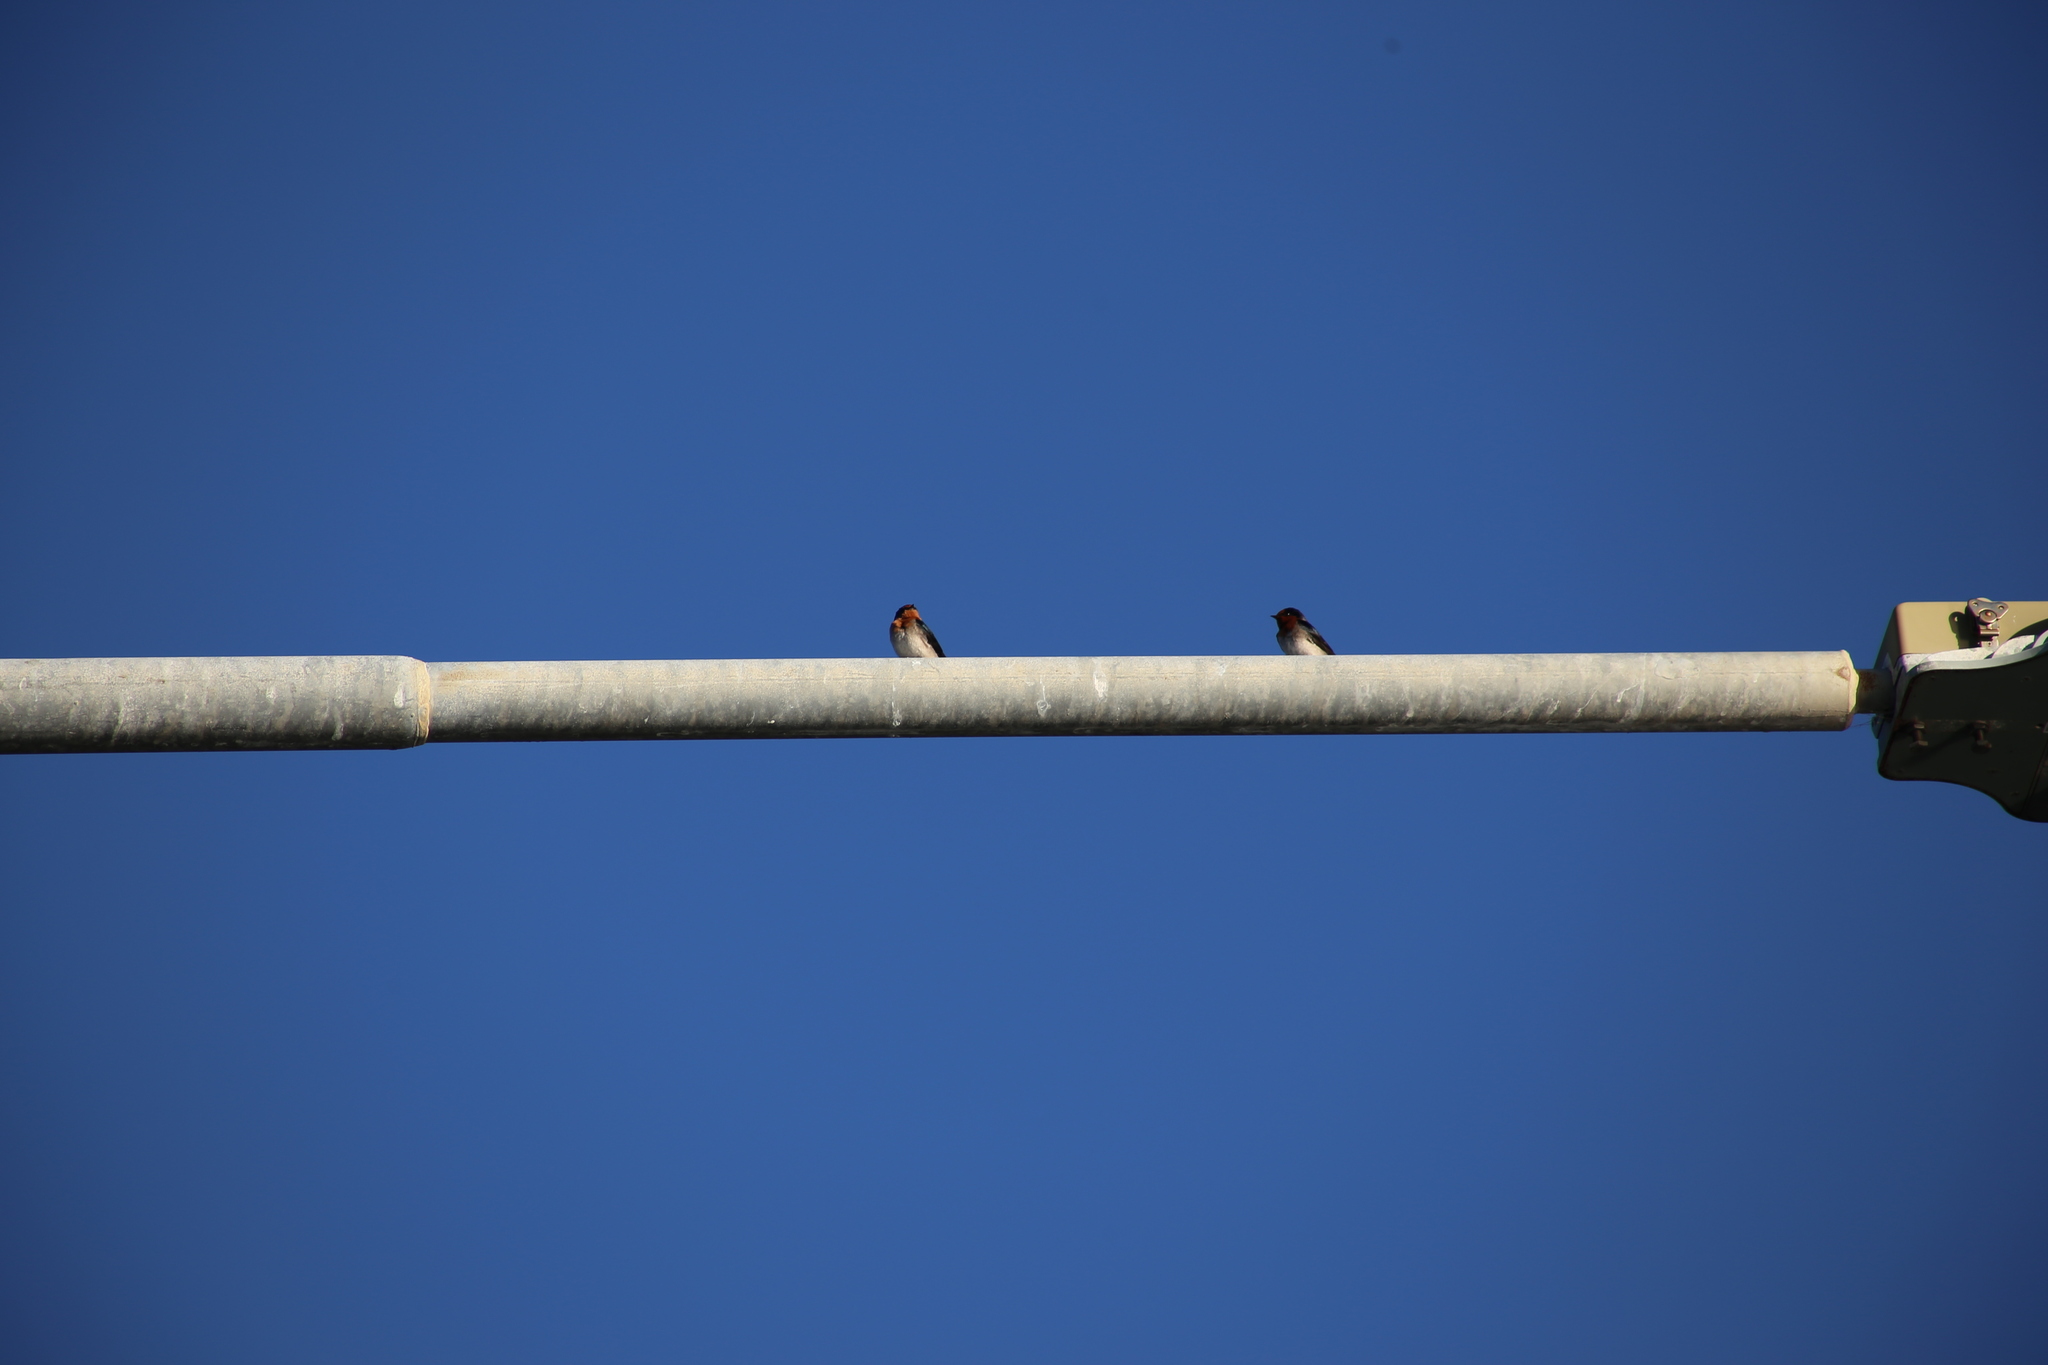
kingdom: Animalia
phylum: Chordata
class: Aves
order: Passeriformes
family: Hirundinidae
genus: Hirundo
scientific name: Hirundo neoxena
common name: Welcome swallow
